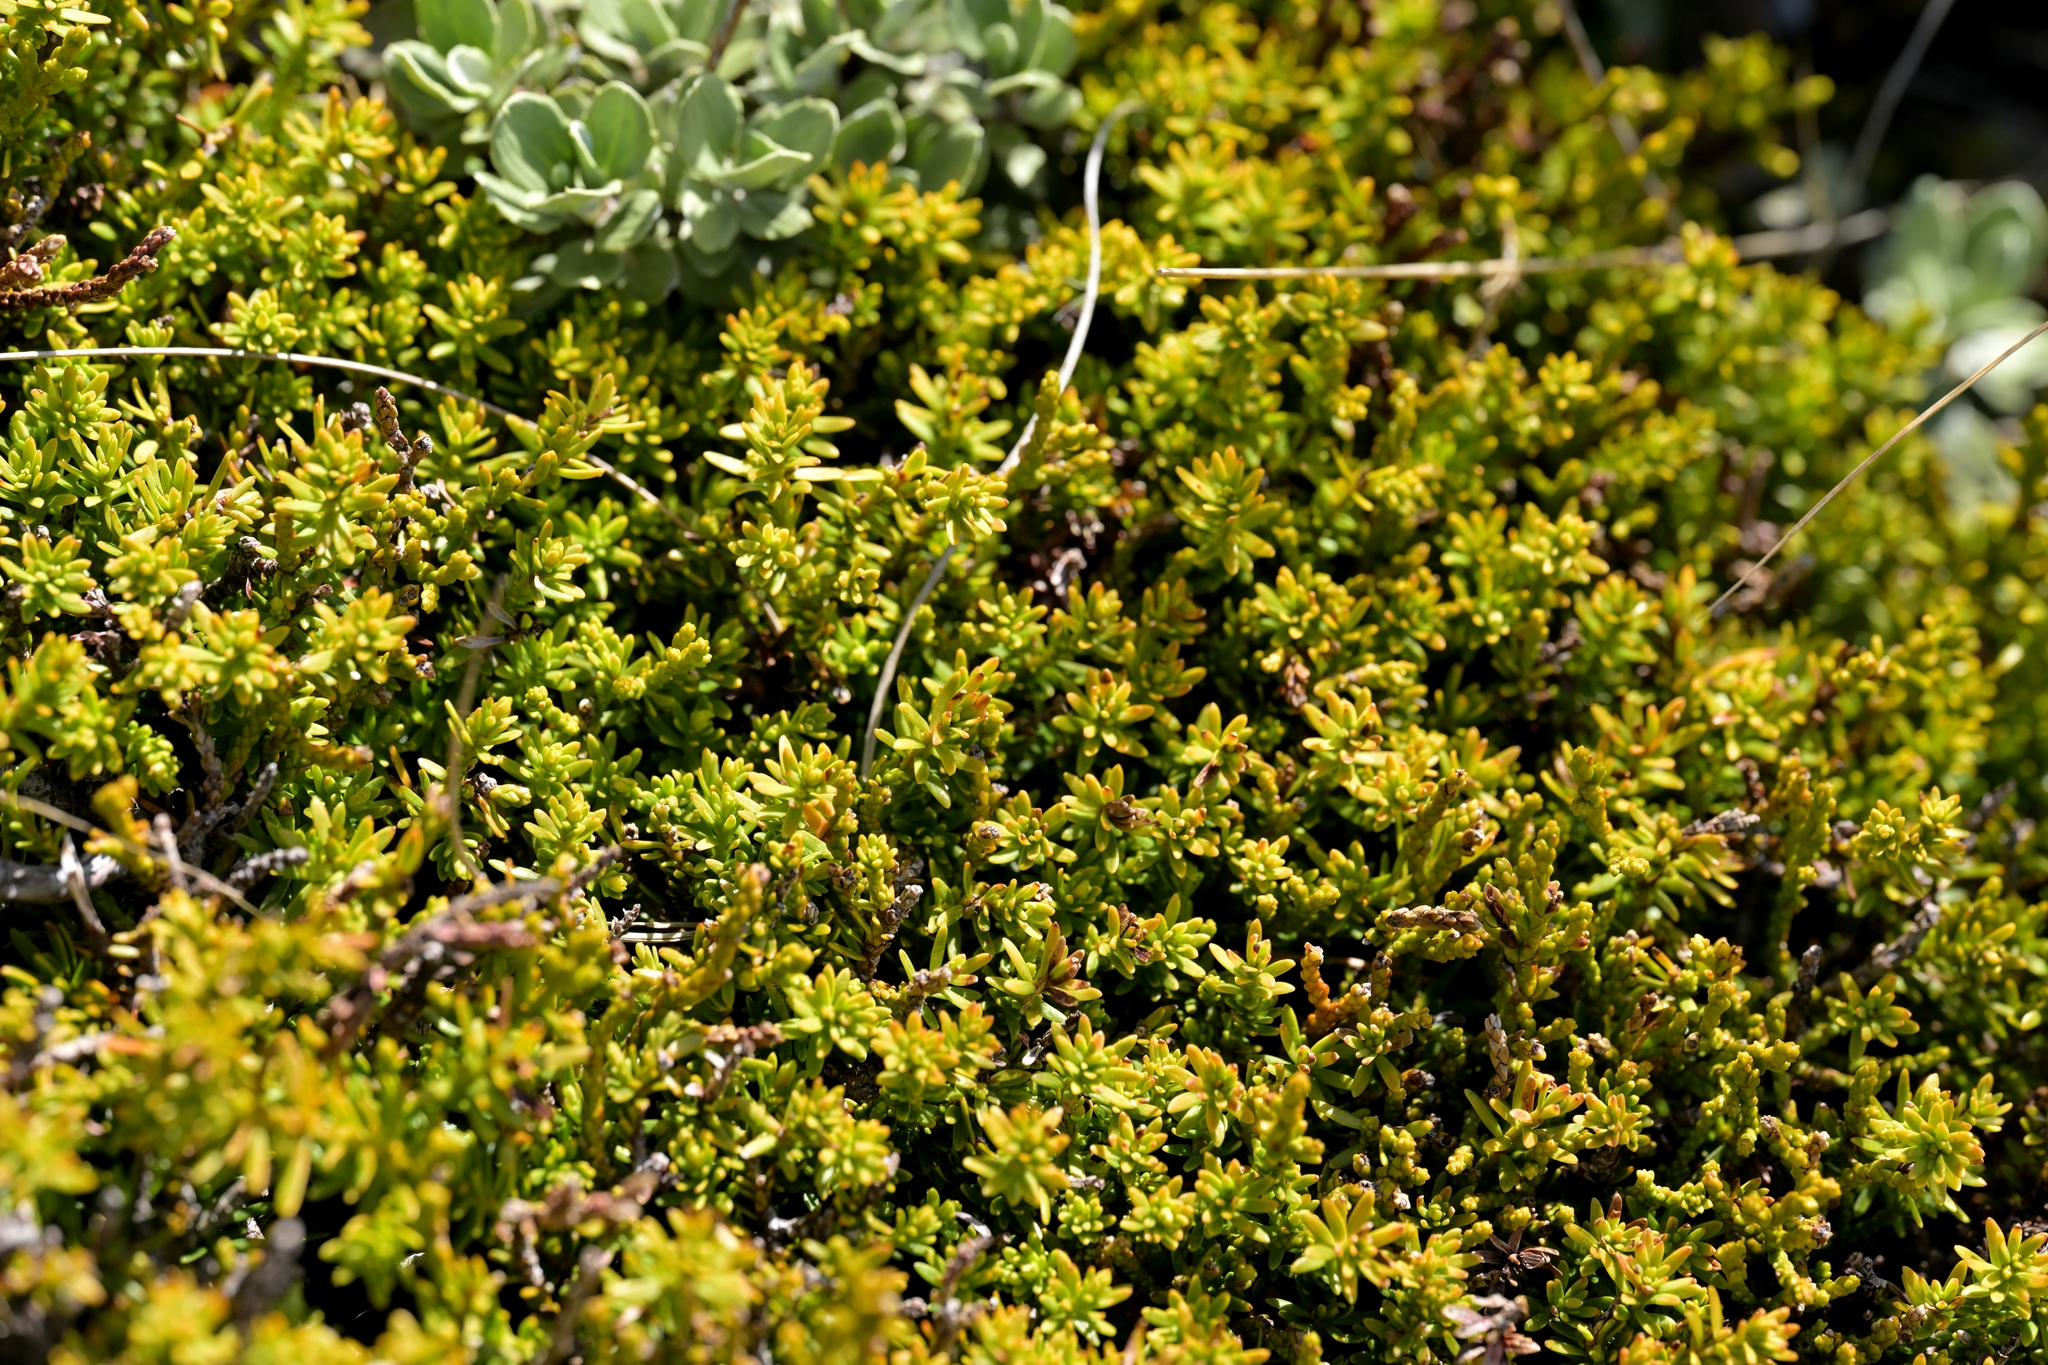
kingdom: Plantae
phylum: Tracheophyta
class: Pinopsida
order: Pinales
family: Podocarpaceae
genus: Podocarpus
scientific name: Podocarpus nivalis
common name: Alpine totara
